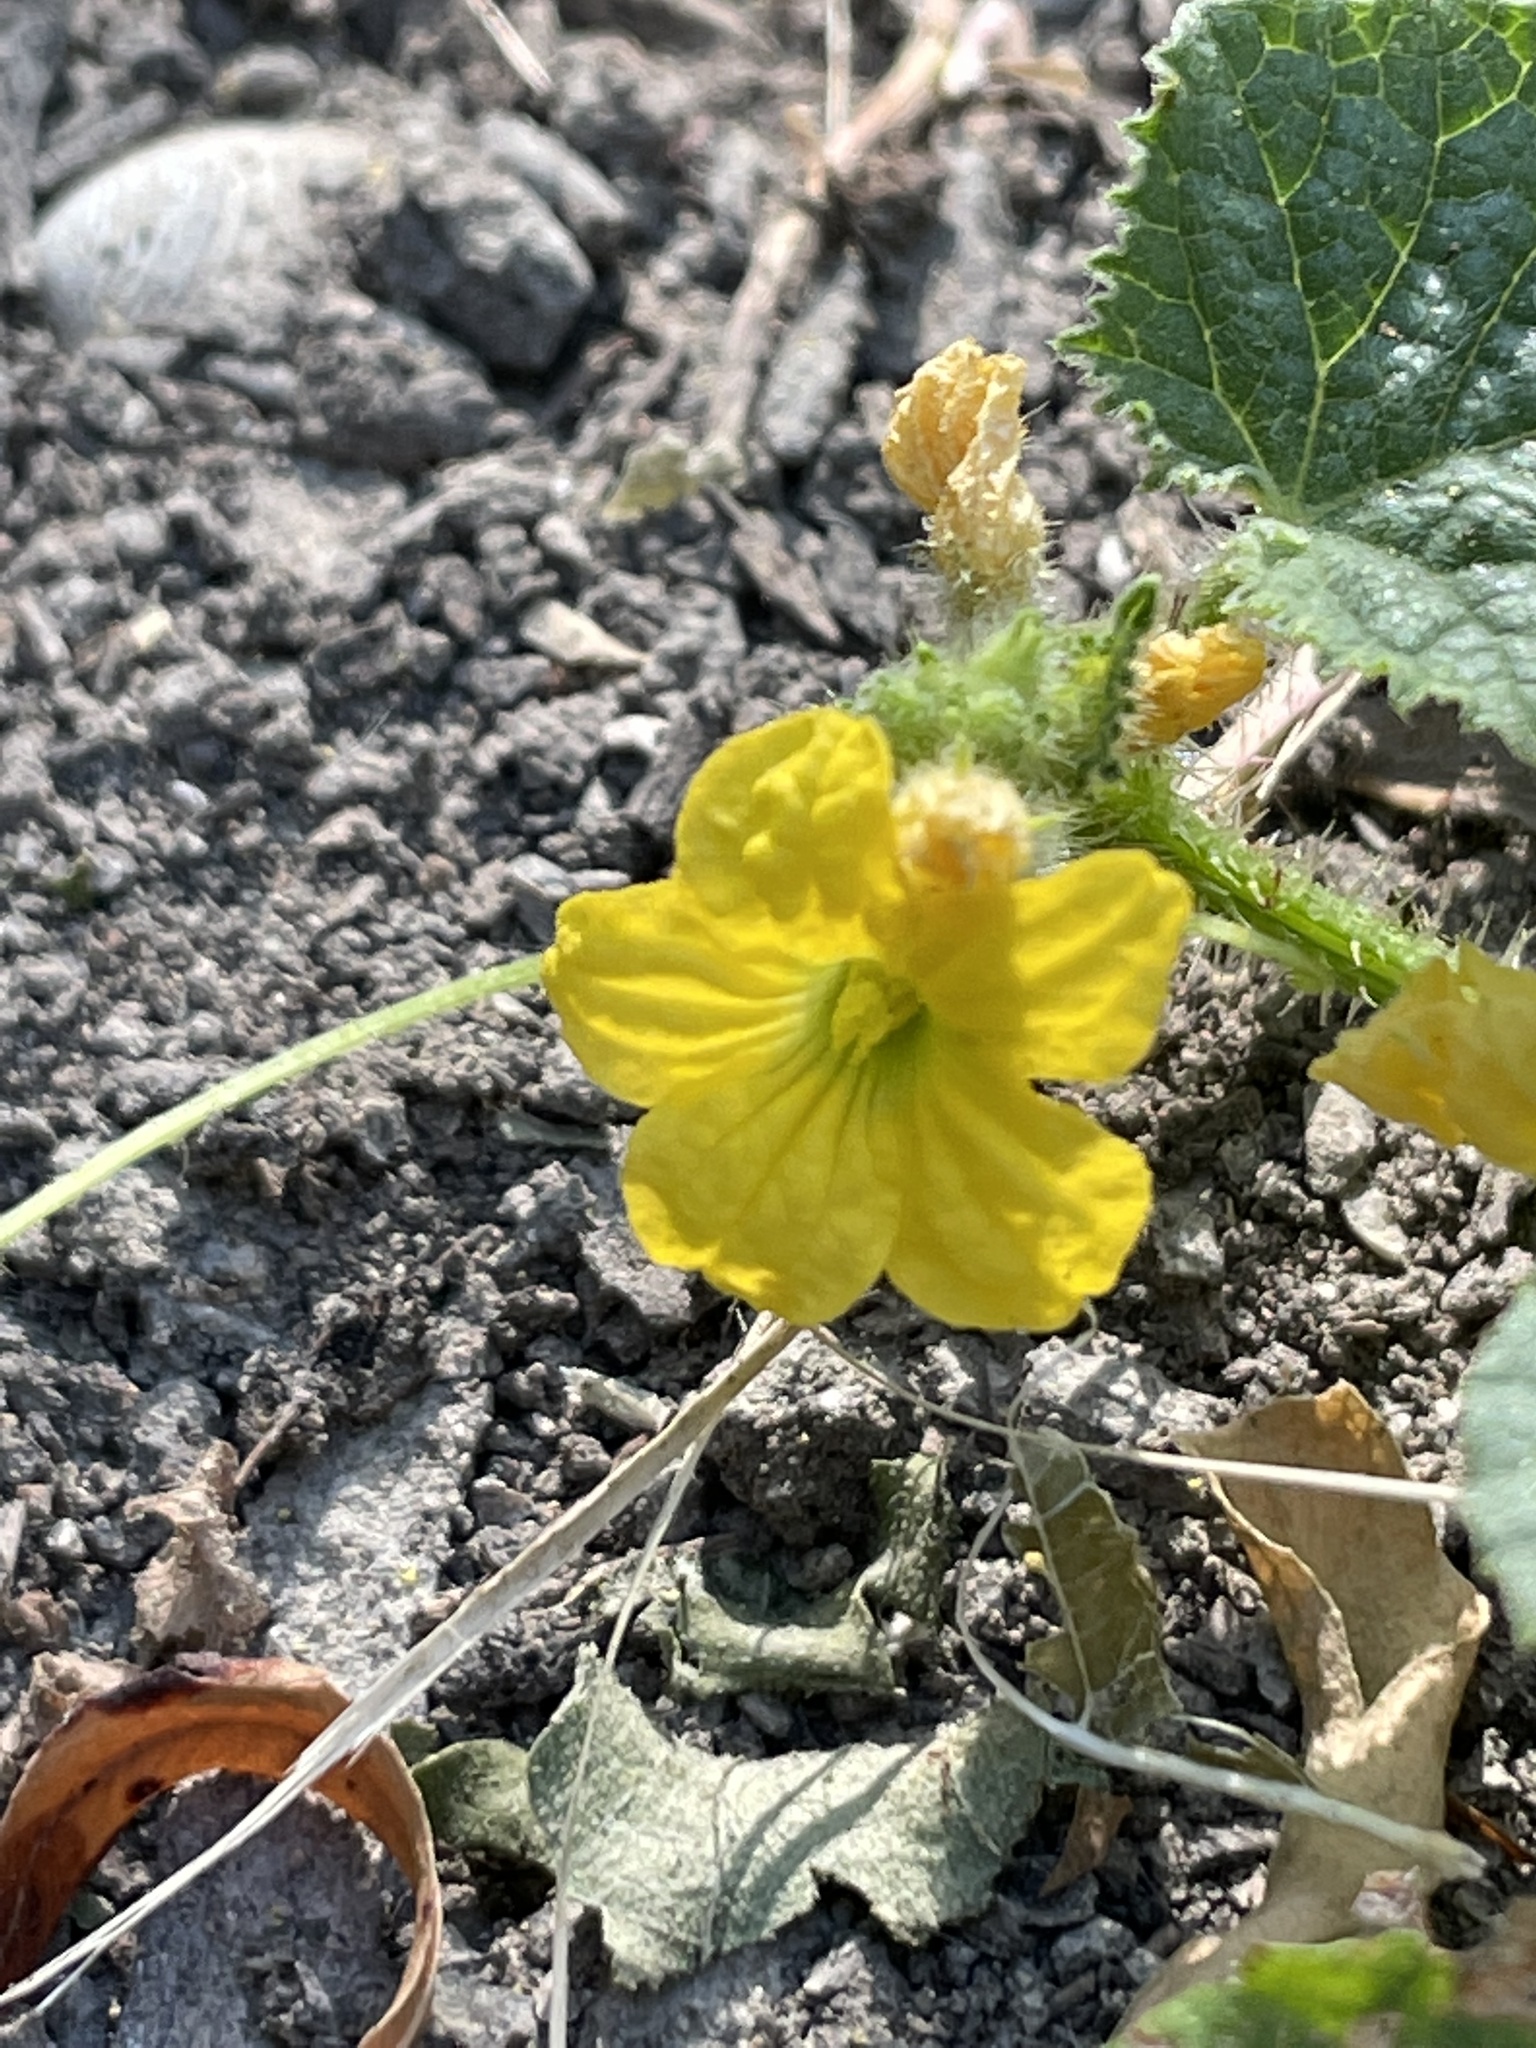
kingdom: Plantae
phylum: Tracheophyta
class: Magnoliopsida
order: Cucurbitales
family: Cucurbitaceae
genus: Cucumis
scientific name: Cucumis melo
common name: Melon
